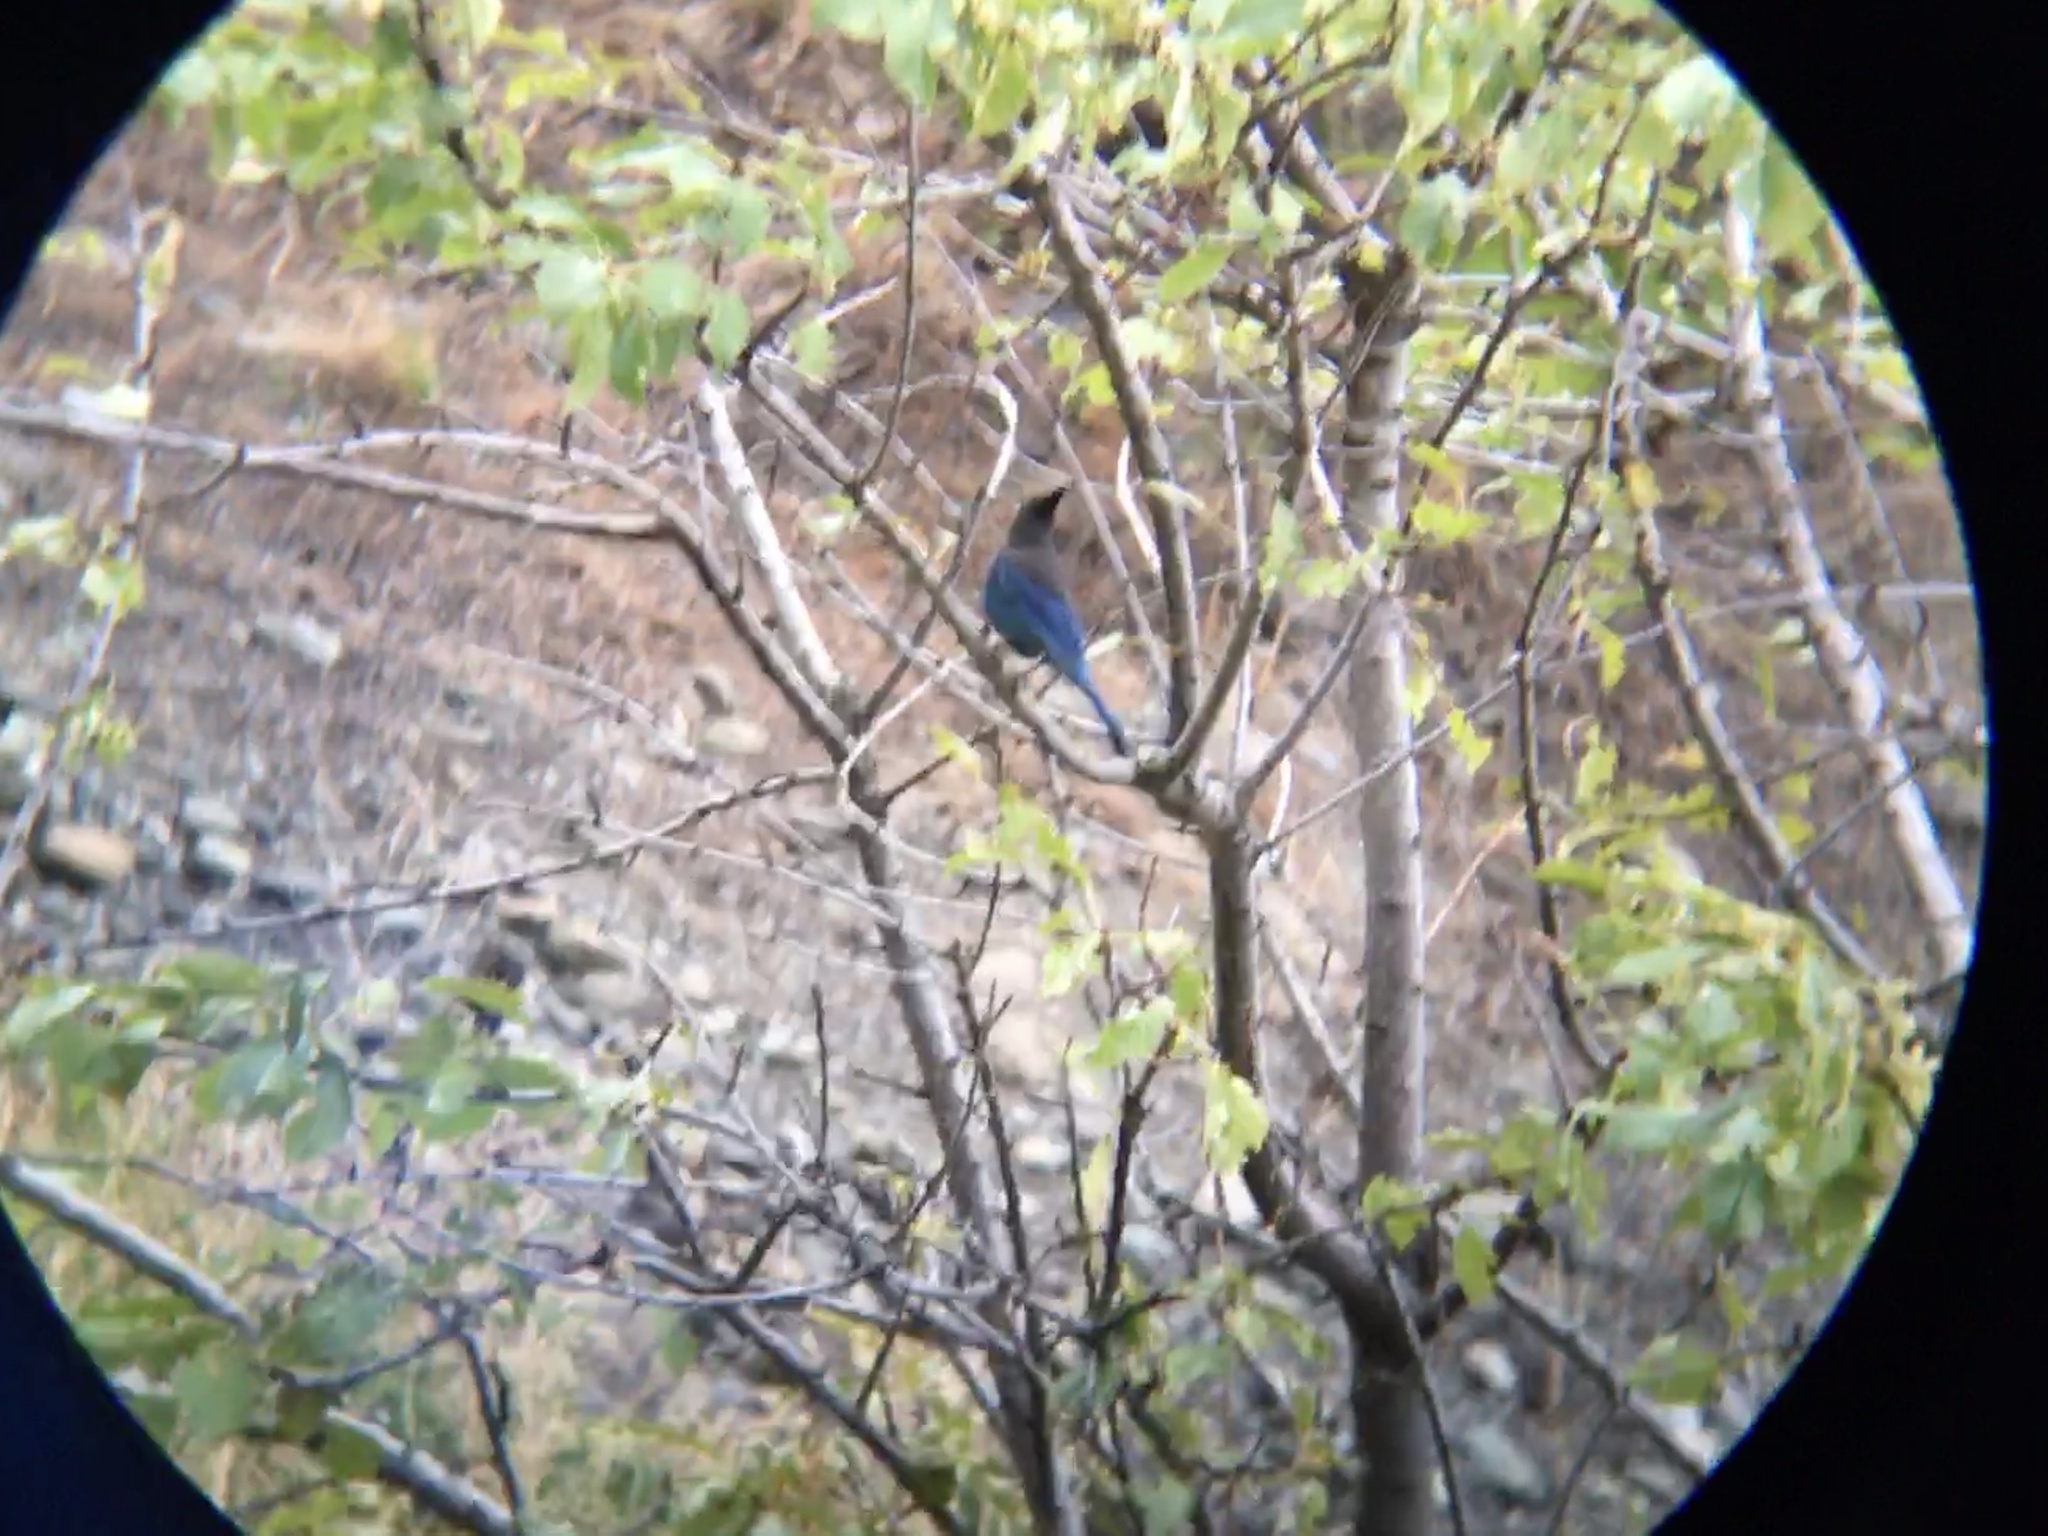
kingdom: Animalia
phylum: Chordata
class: Aves
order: Passeriformes
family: Corvidae
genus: Cyanocitta
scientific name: Cyanocitta stelleri
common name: Steller's jay
